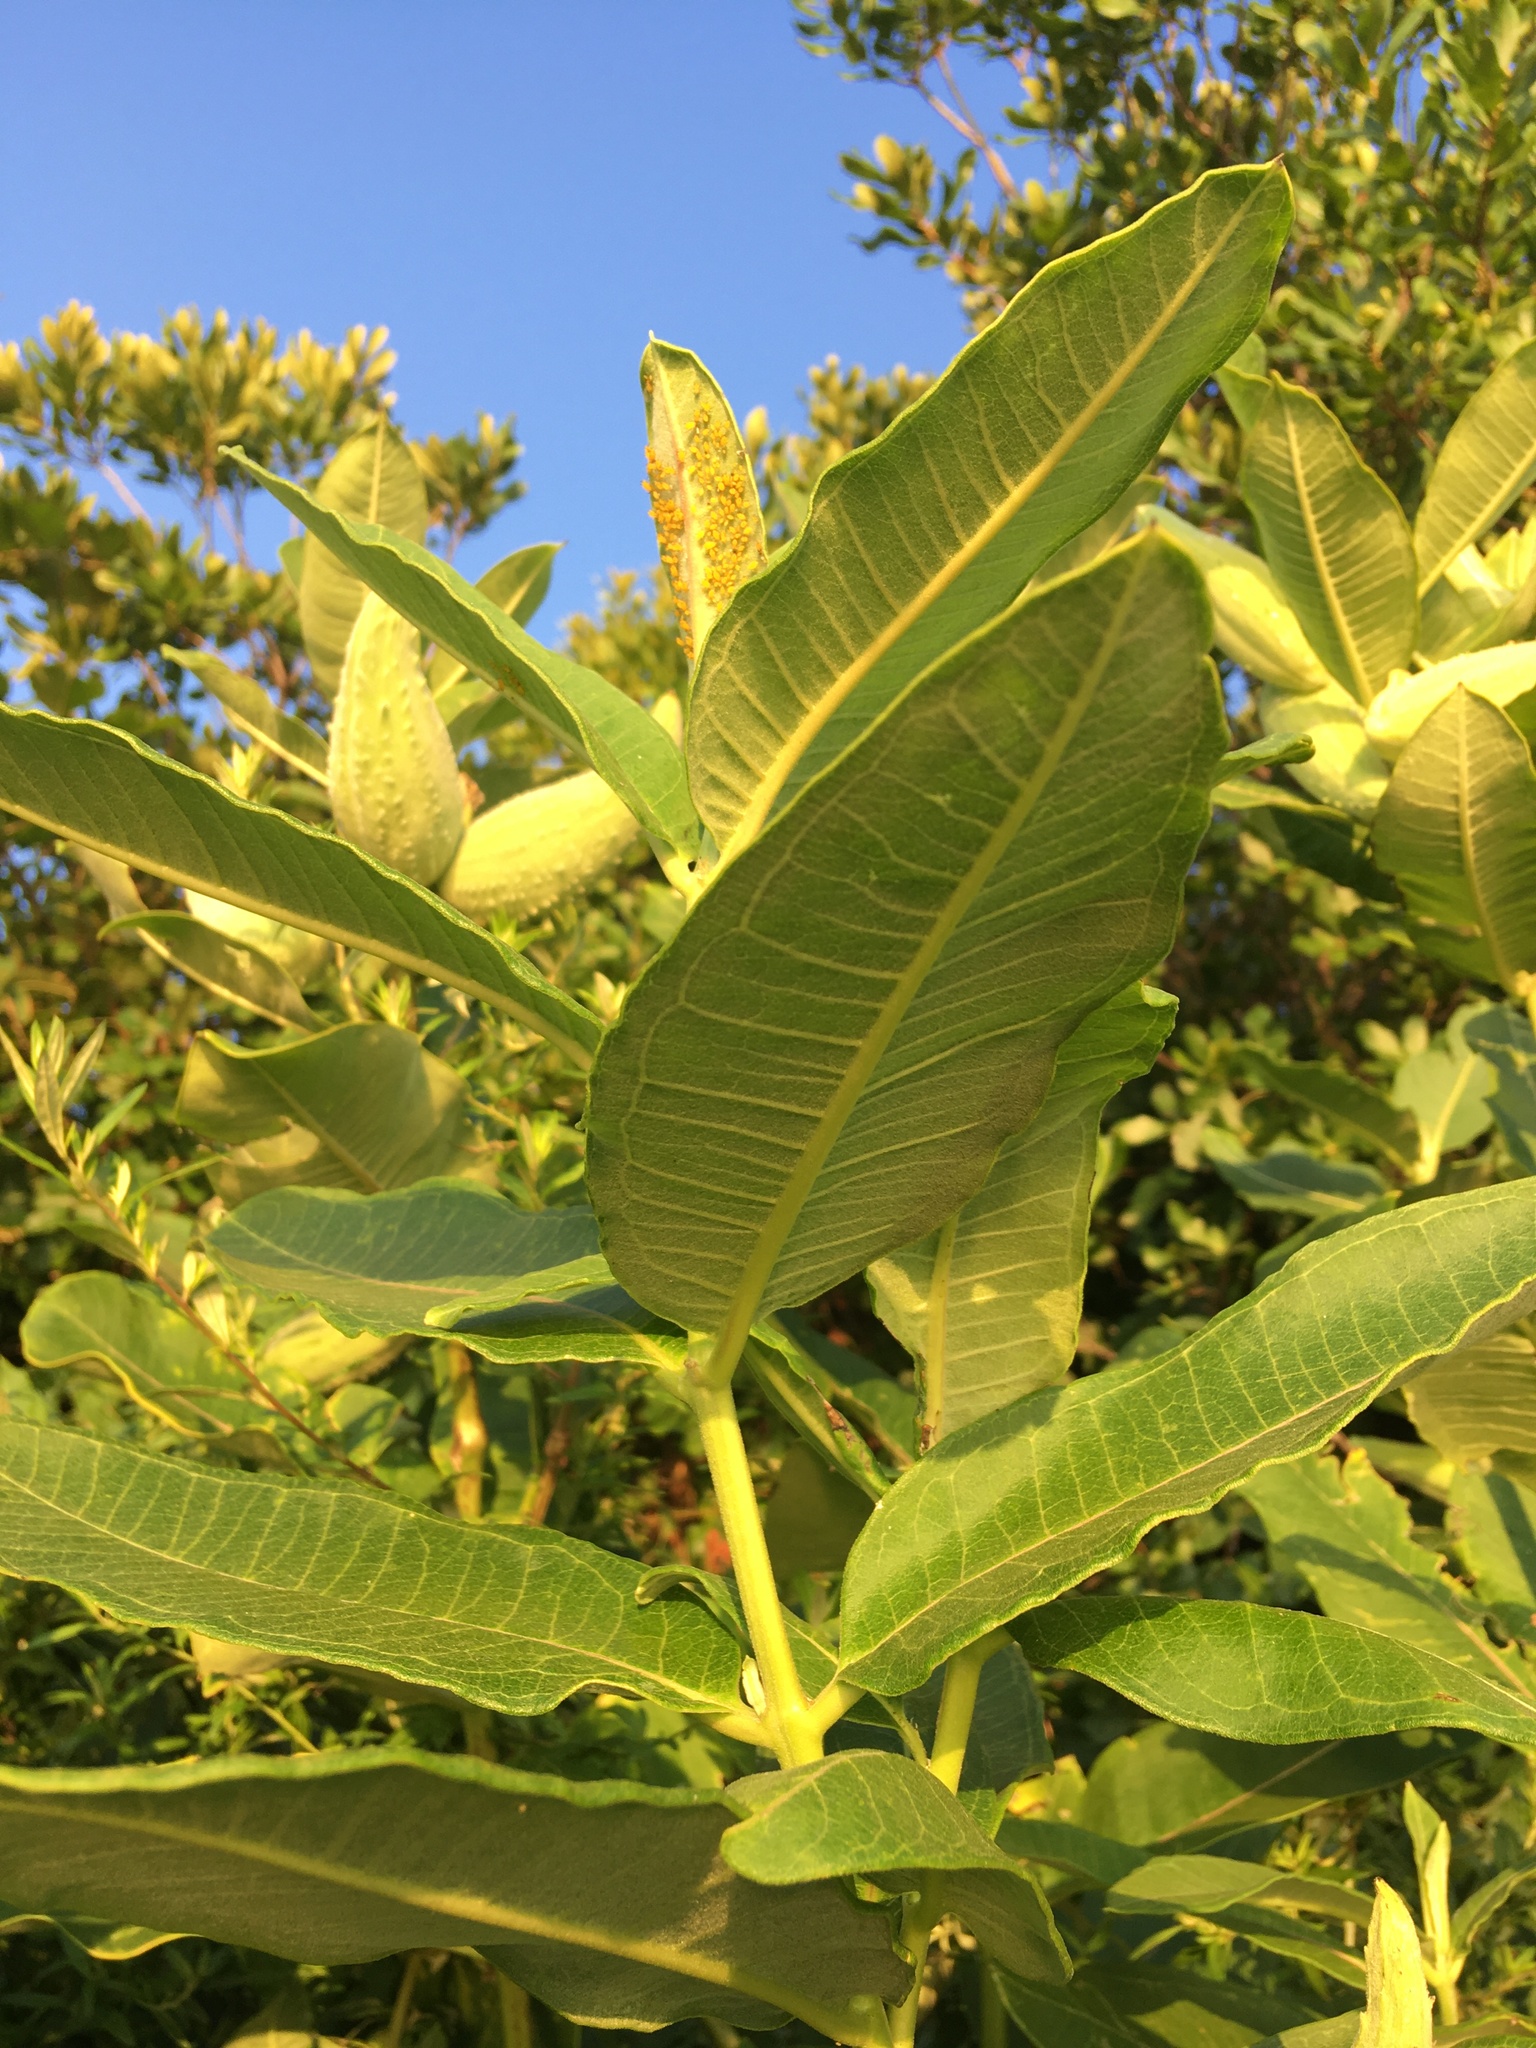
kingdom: Plantae
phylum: Tracheophyta
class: Magnoliopsida
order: Gentianales
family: Apocynaceae
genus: Asclepias
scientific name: Asclepias syriaca
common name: Common milkweed
